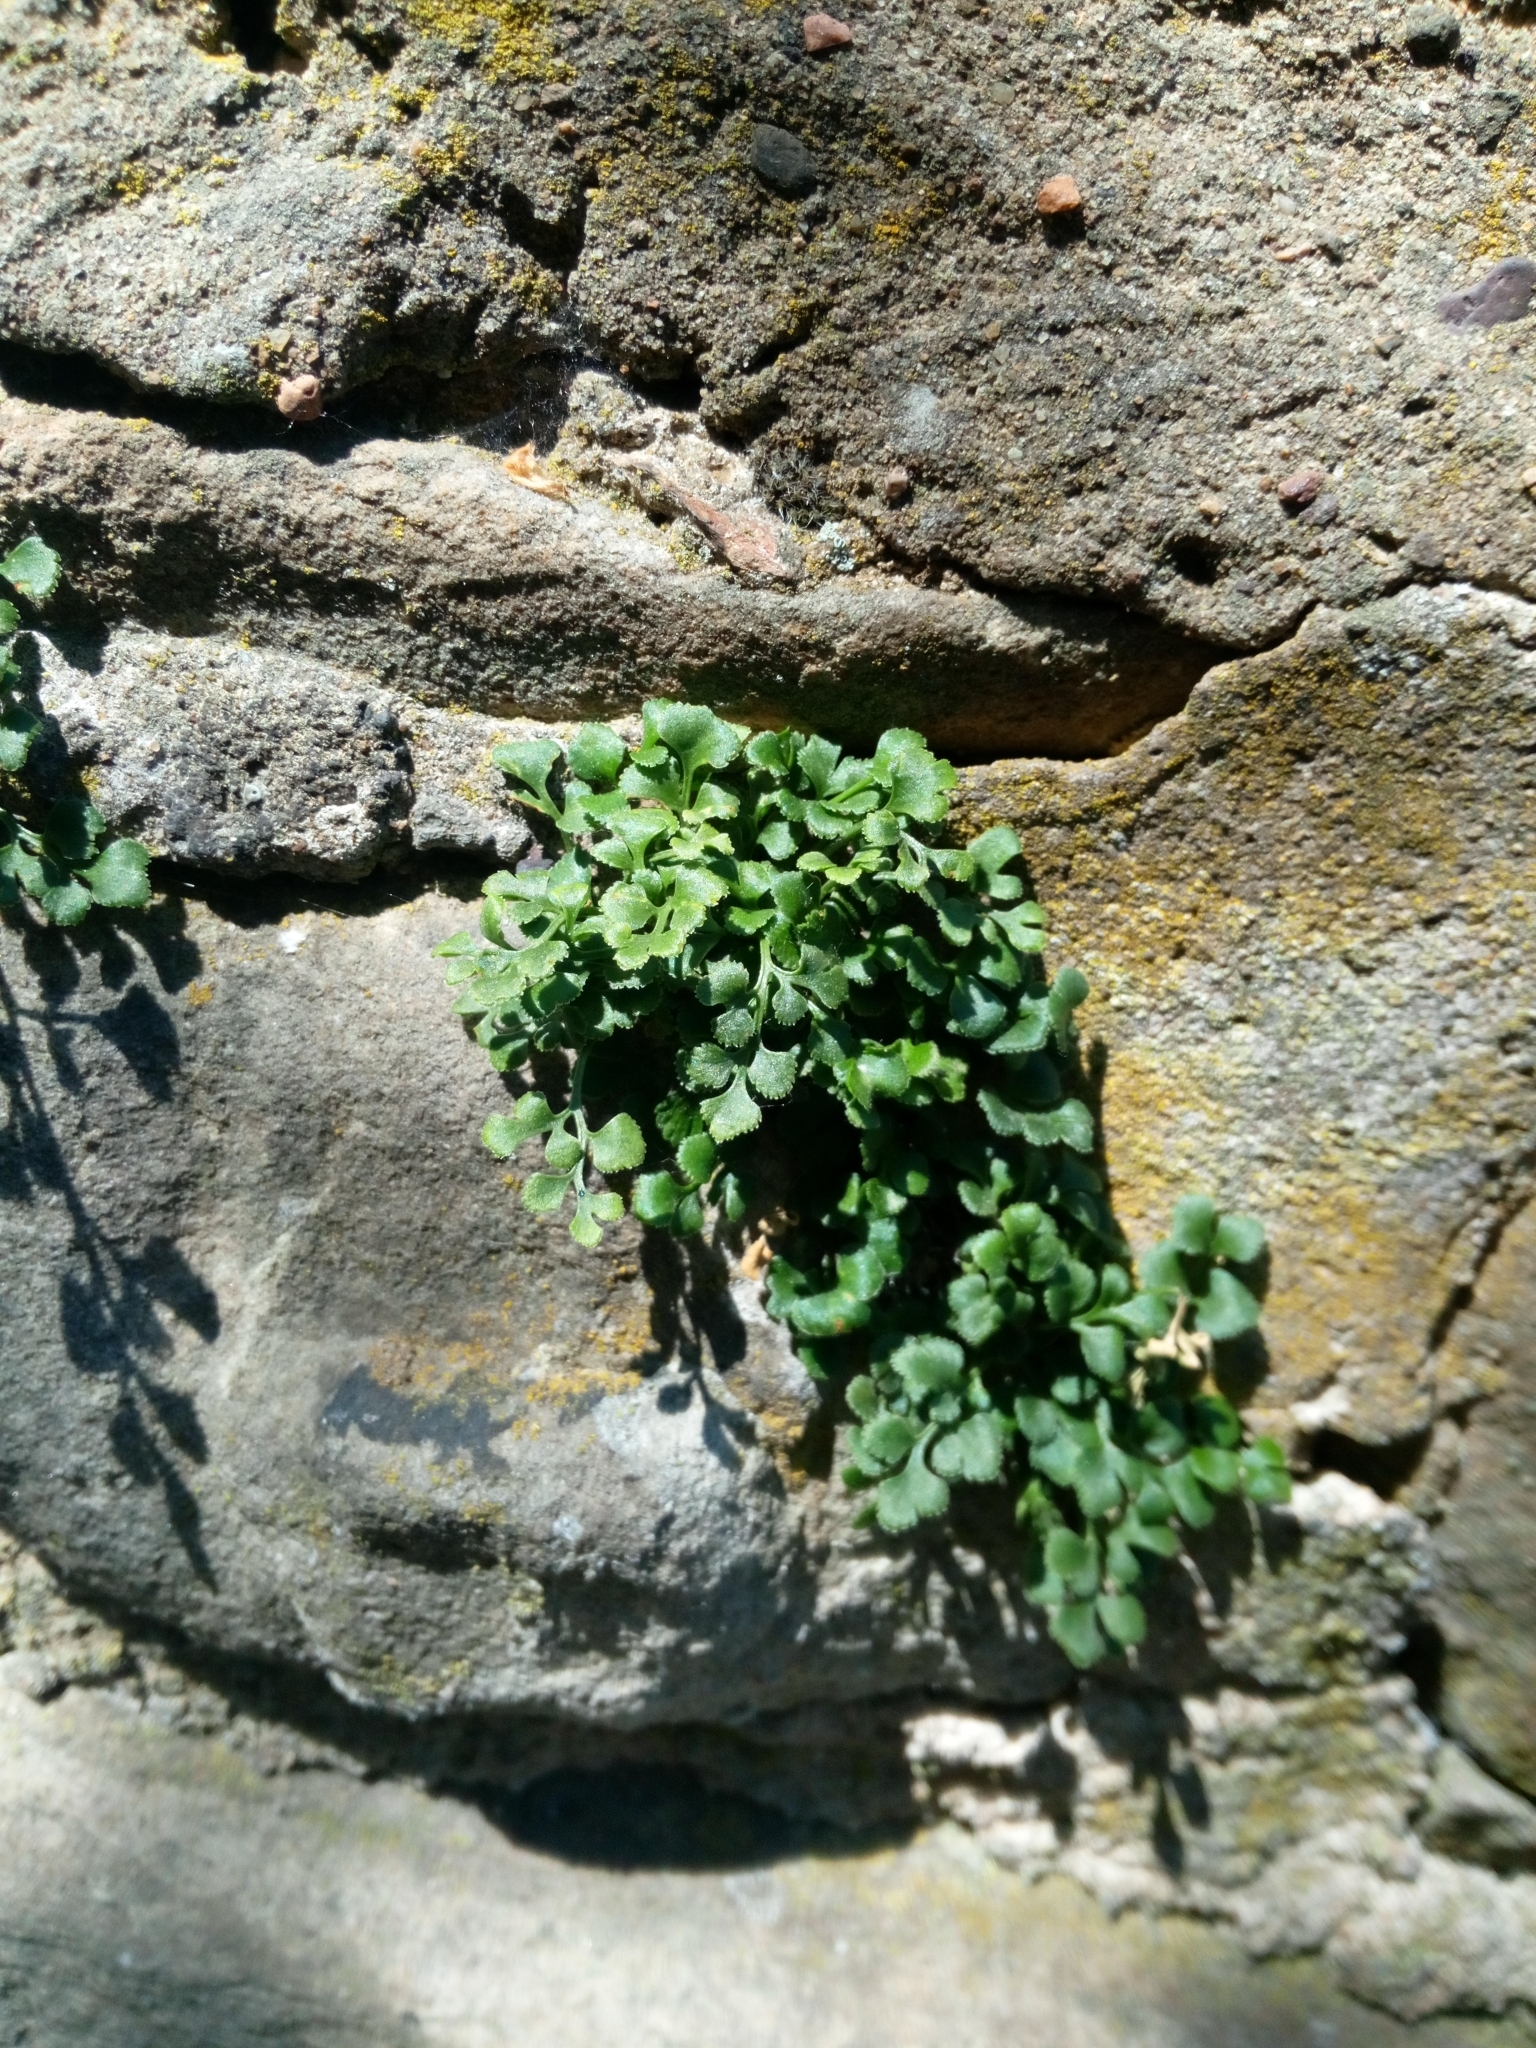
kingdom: Plantae
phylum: Tracheophyta
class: Polypodiopsida
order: Polypodiales
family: Aspleniaceae
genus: Asplenium
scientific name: Asplenium ruta-muraria
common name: Wall-rue
